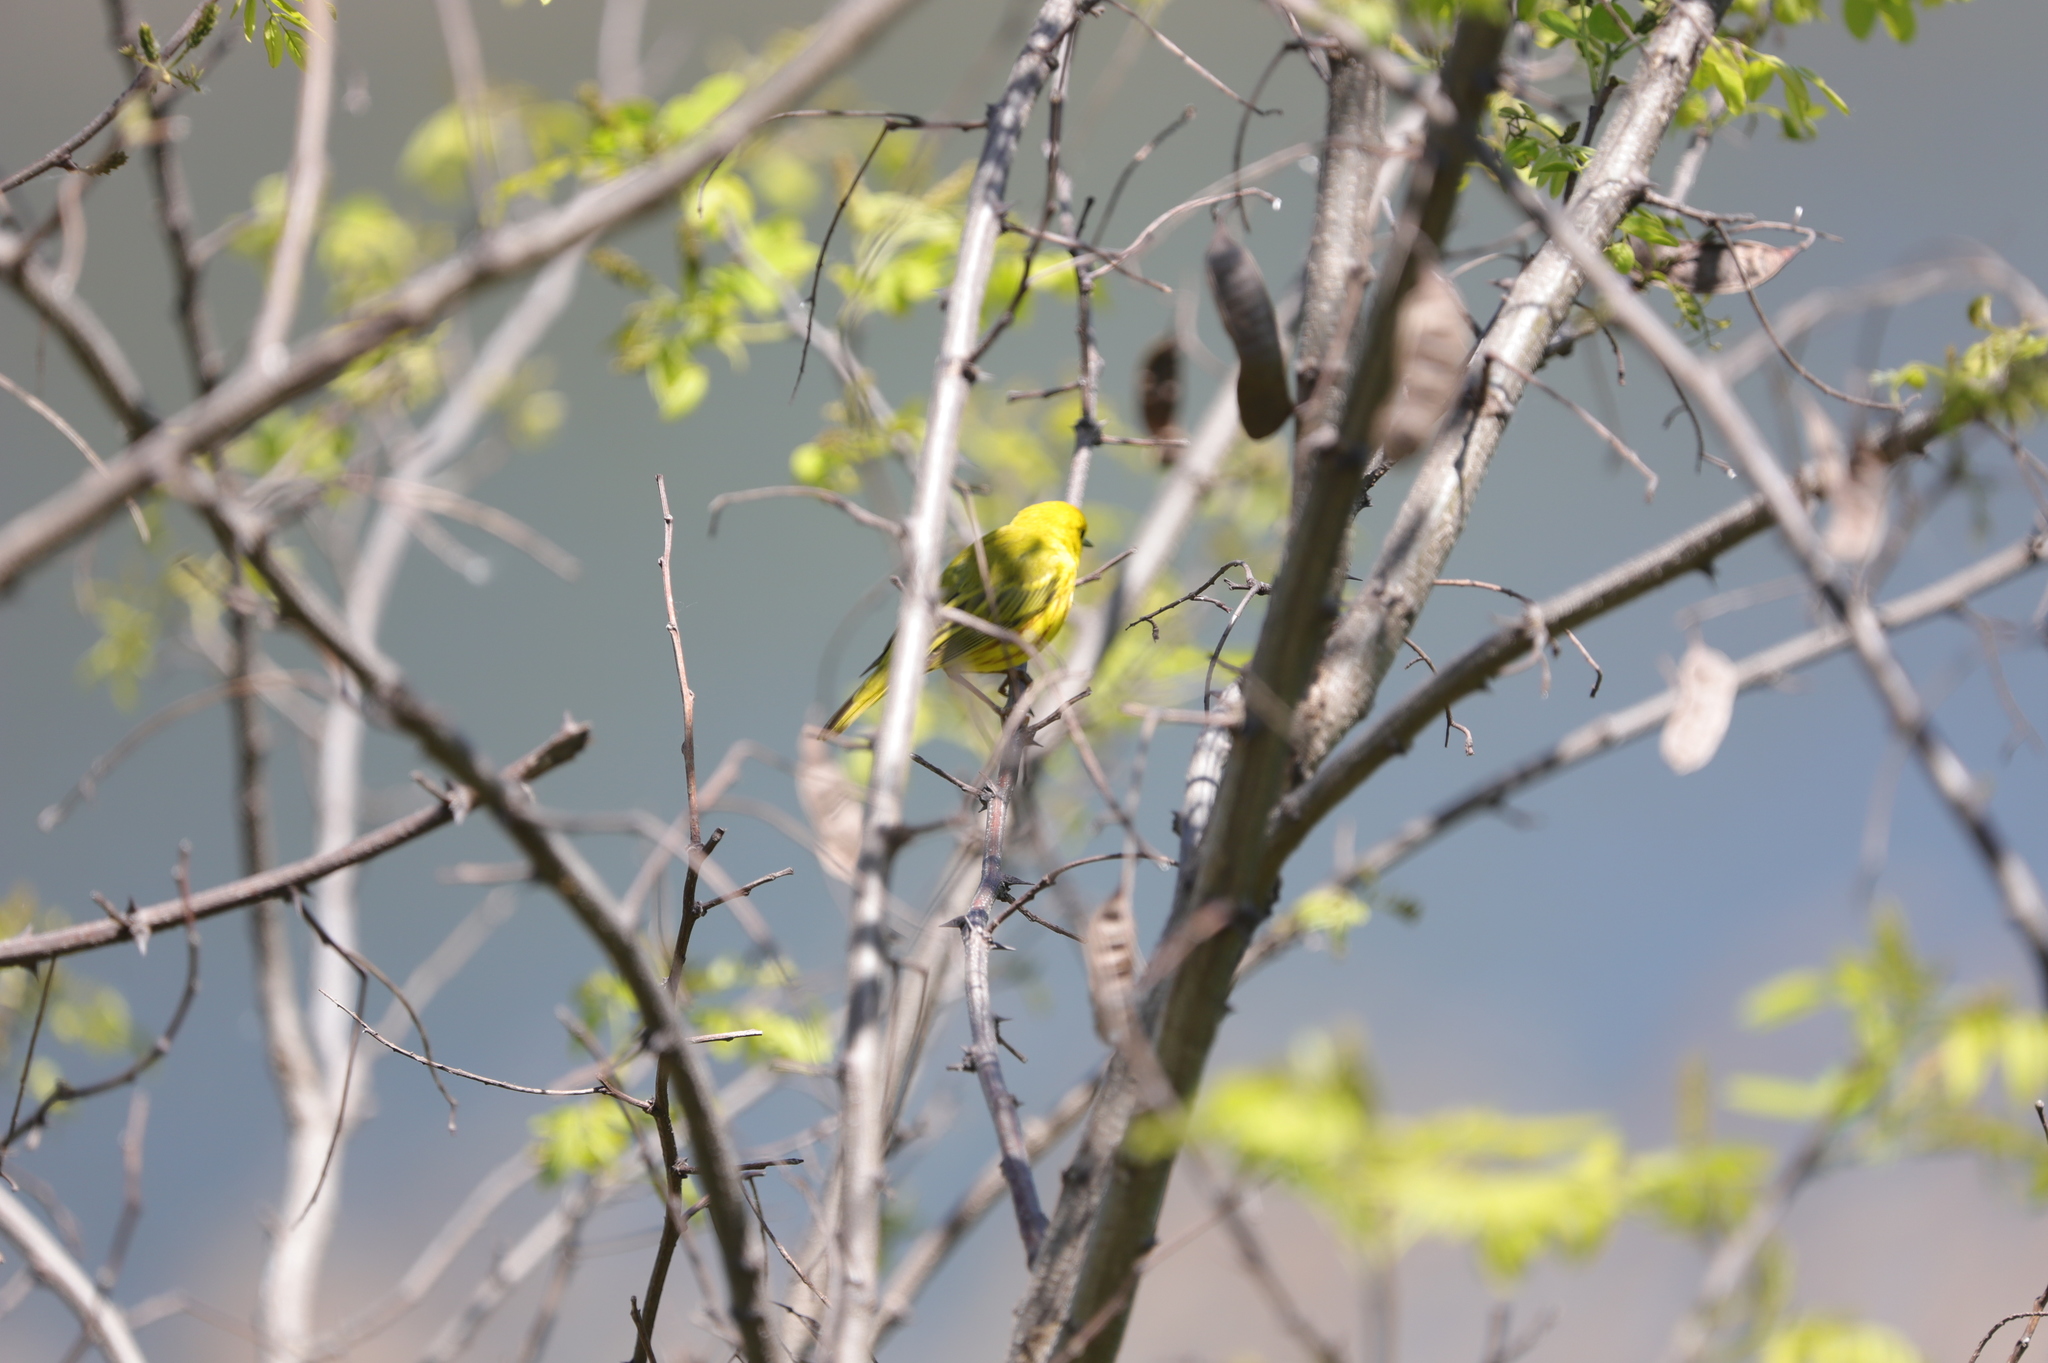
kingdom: Animalia
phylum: Chordata
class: Aves
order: Passeriformes
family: Parulidae
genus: Setophaga
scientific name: Setophaga petechia
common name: Yellow warbler
